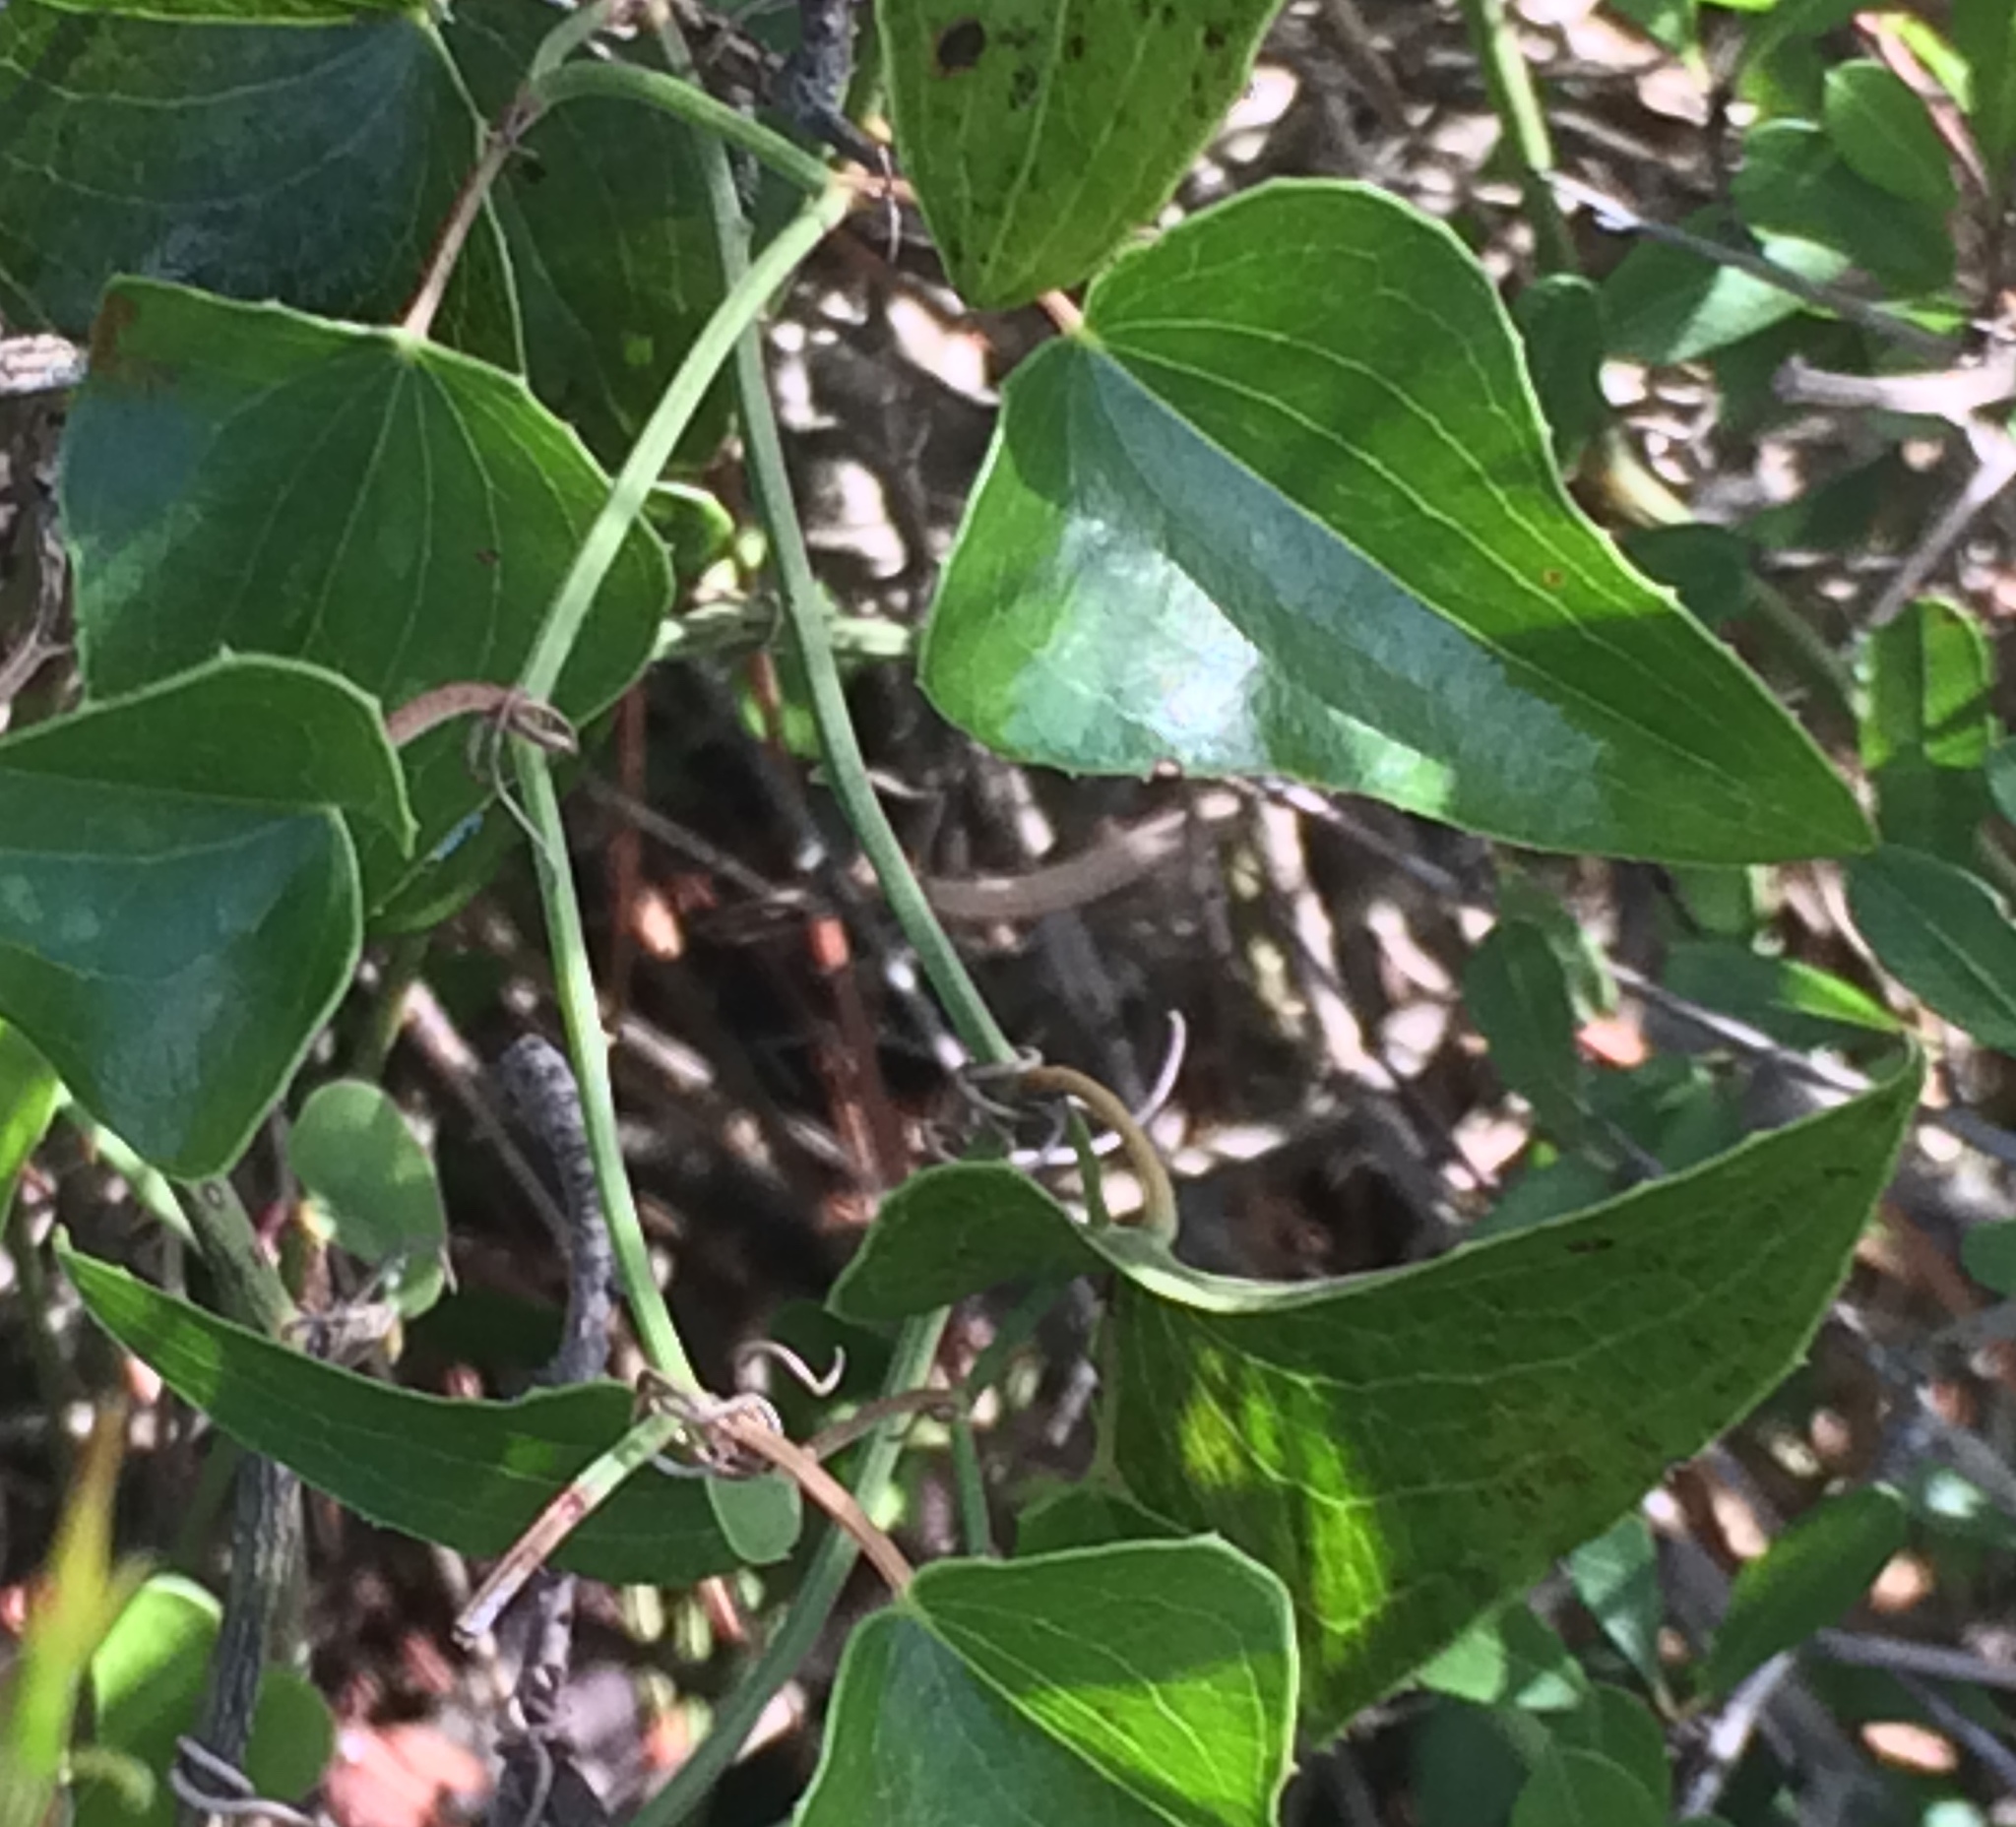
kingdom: Plantae
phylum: Tracheophyta
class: Liliopsida
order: Liliales
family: Smilacaceae
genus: Smilax
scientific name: Smilax aspera
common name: Common smilax
